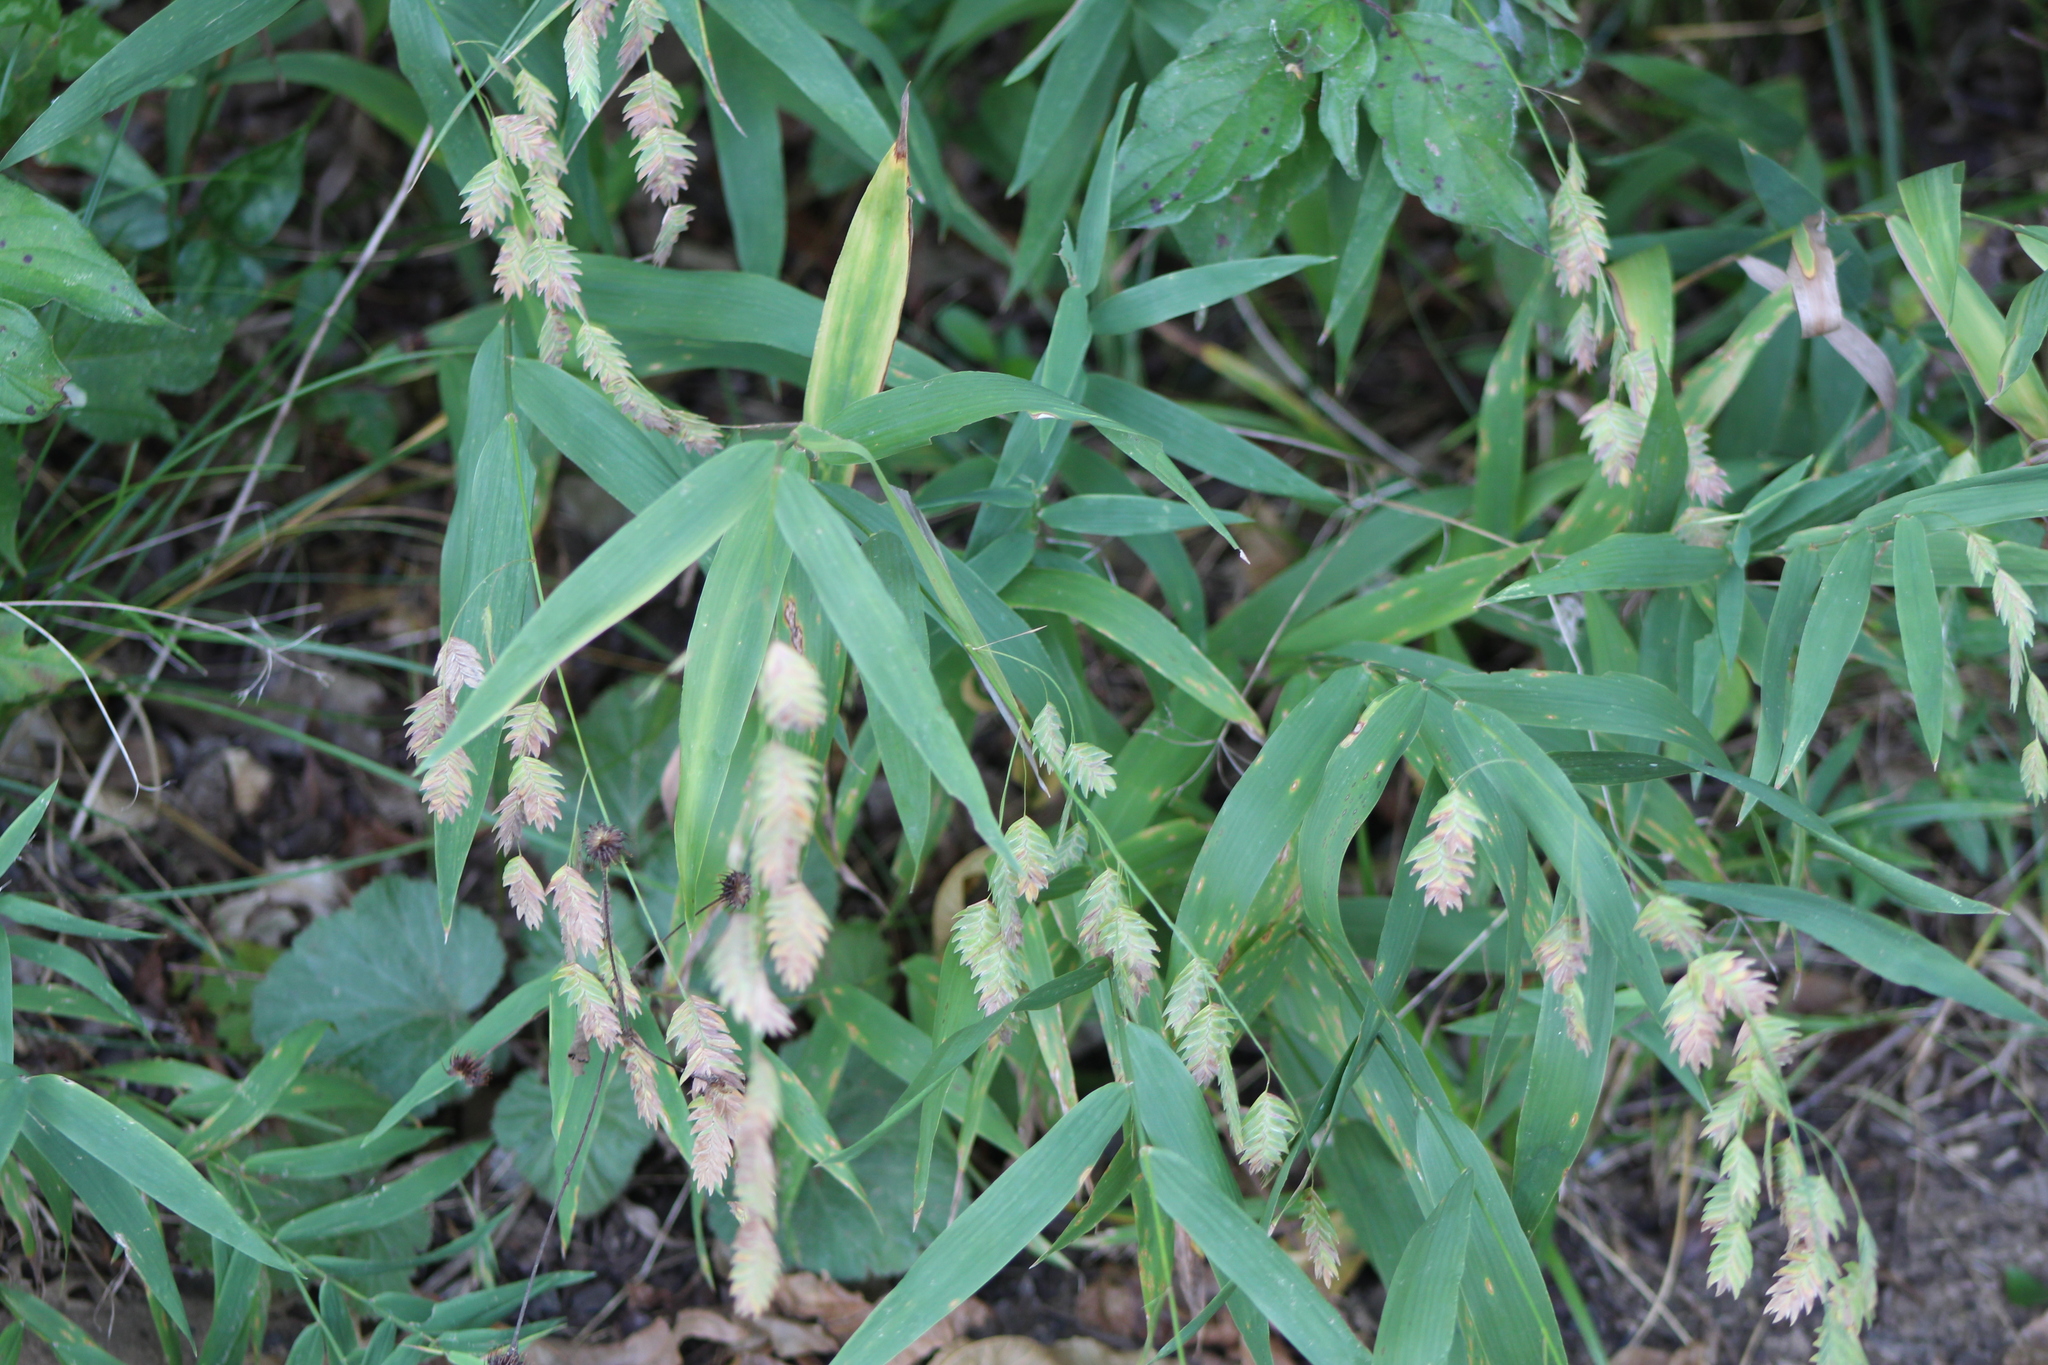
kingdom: Plantae
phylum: Tracheophyta
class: Liliopsida
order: Poales
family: Poaceae
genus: Chasmanthium
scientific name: Chasmanthium latifolium
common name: Broad-leaved chasmanthium
